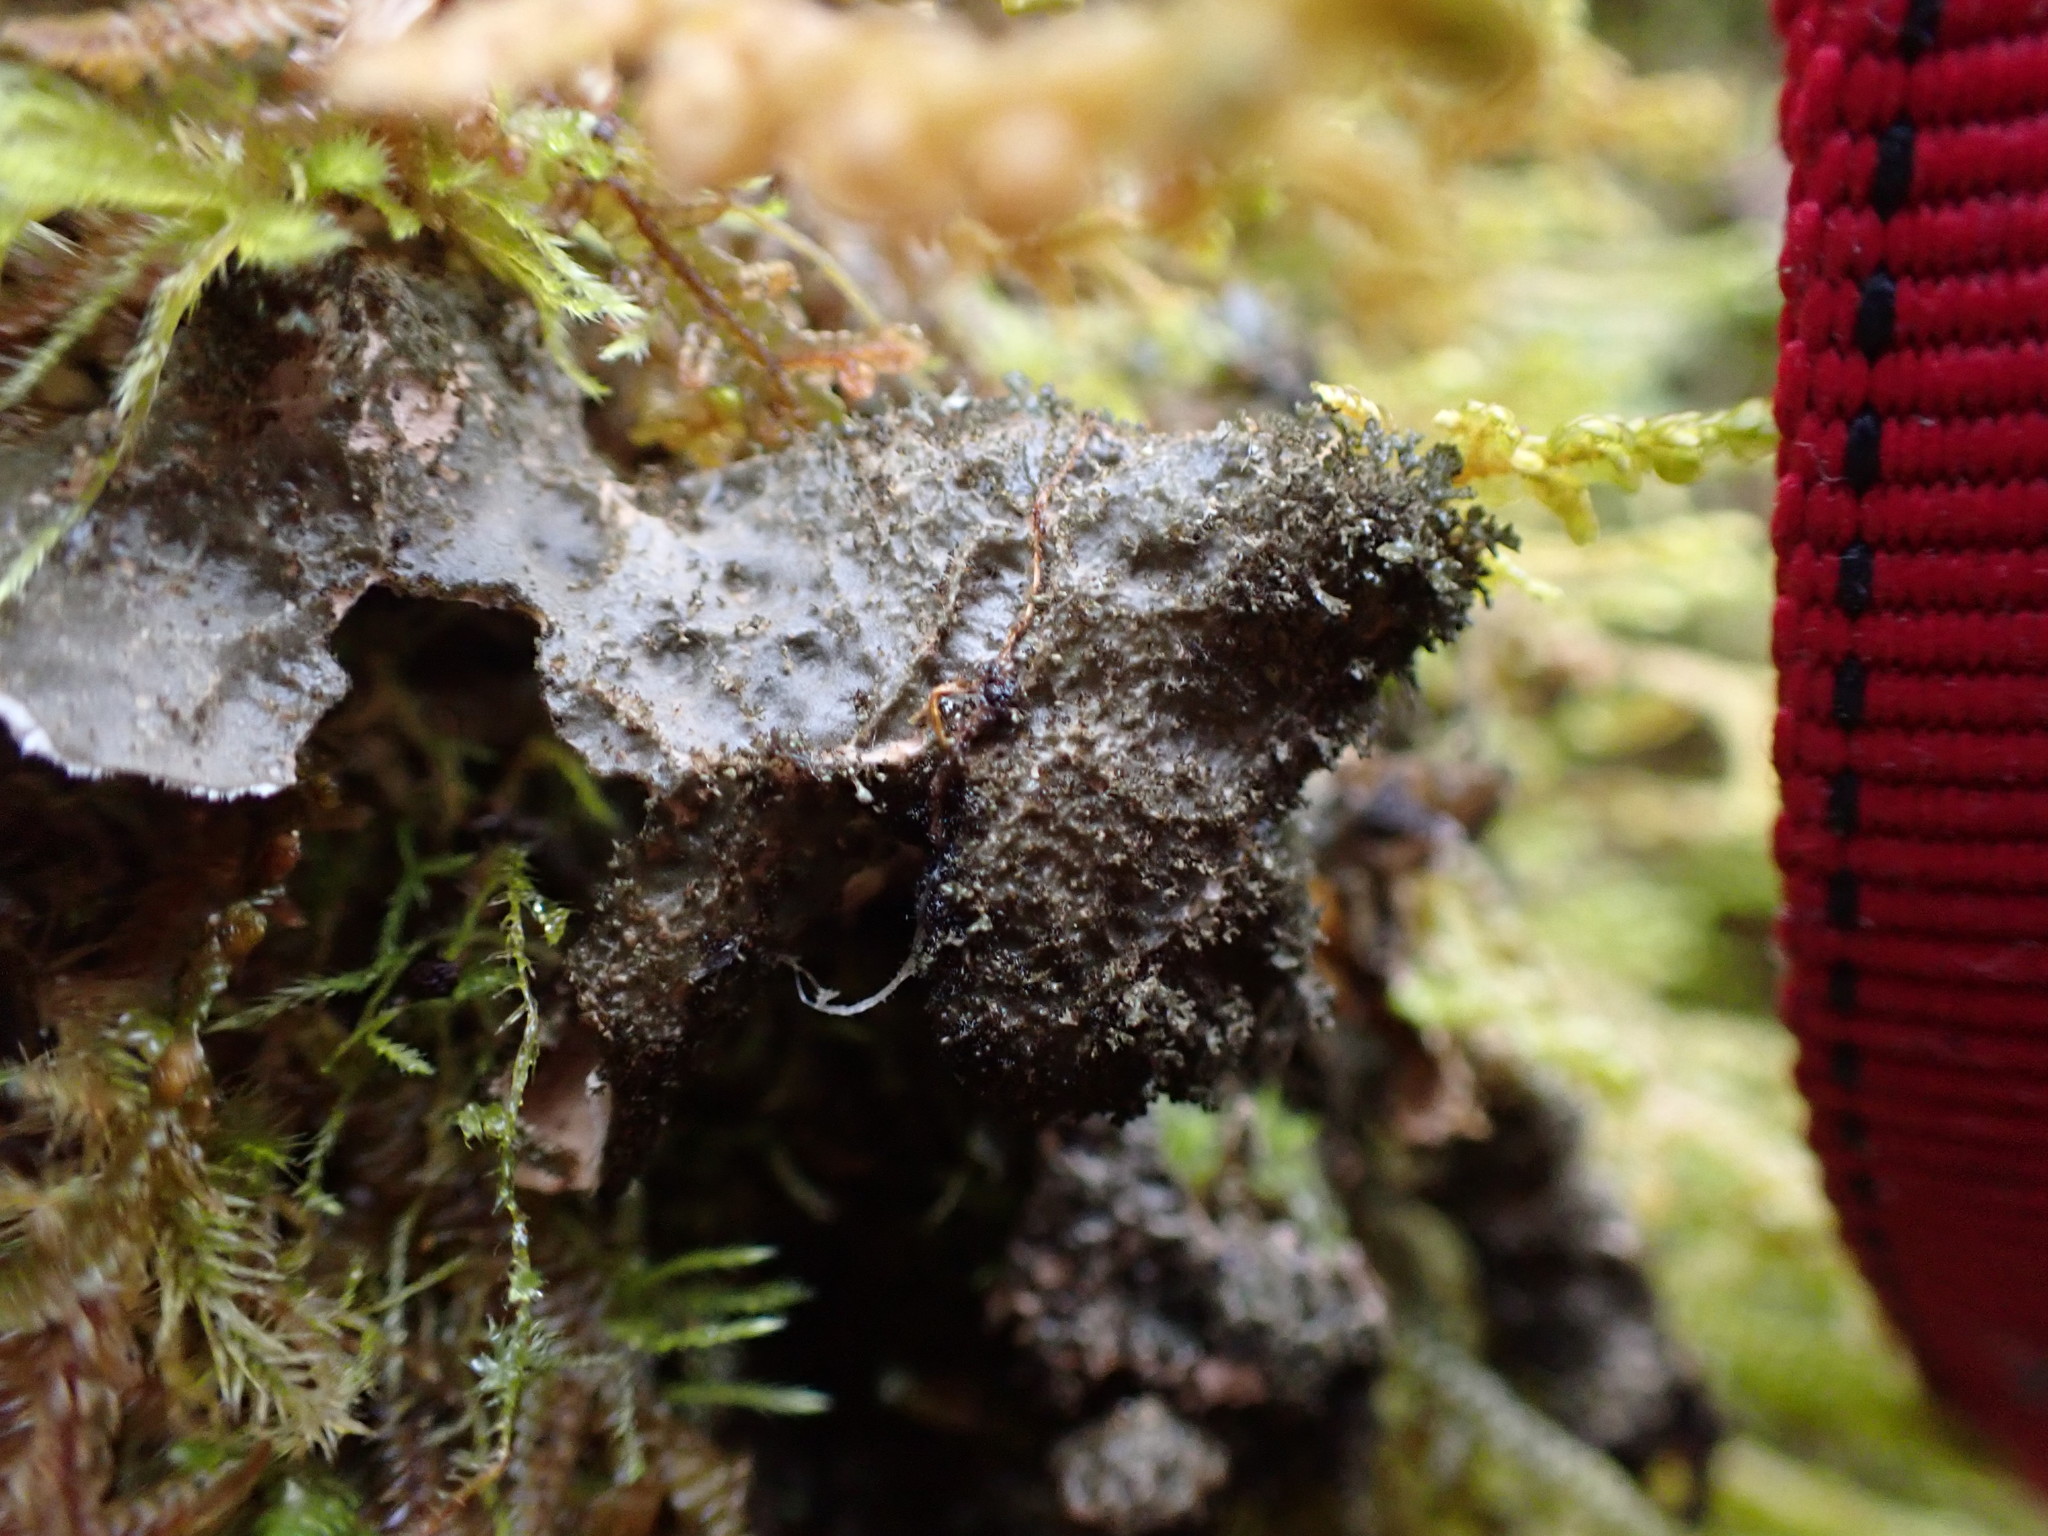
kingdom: Fungi
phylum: Ascomycota
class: Lecanoromycetes
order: Peltigerales
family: Lobariaceae
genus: Sticta
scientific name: Sticta fuliginosa
